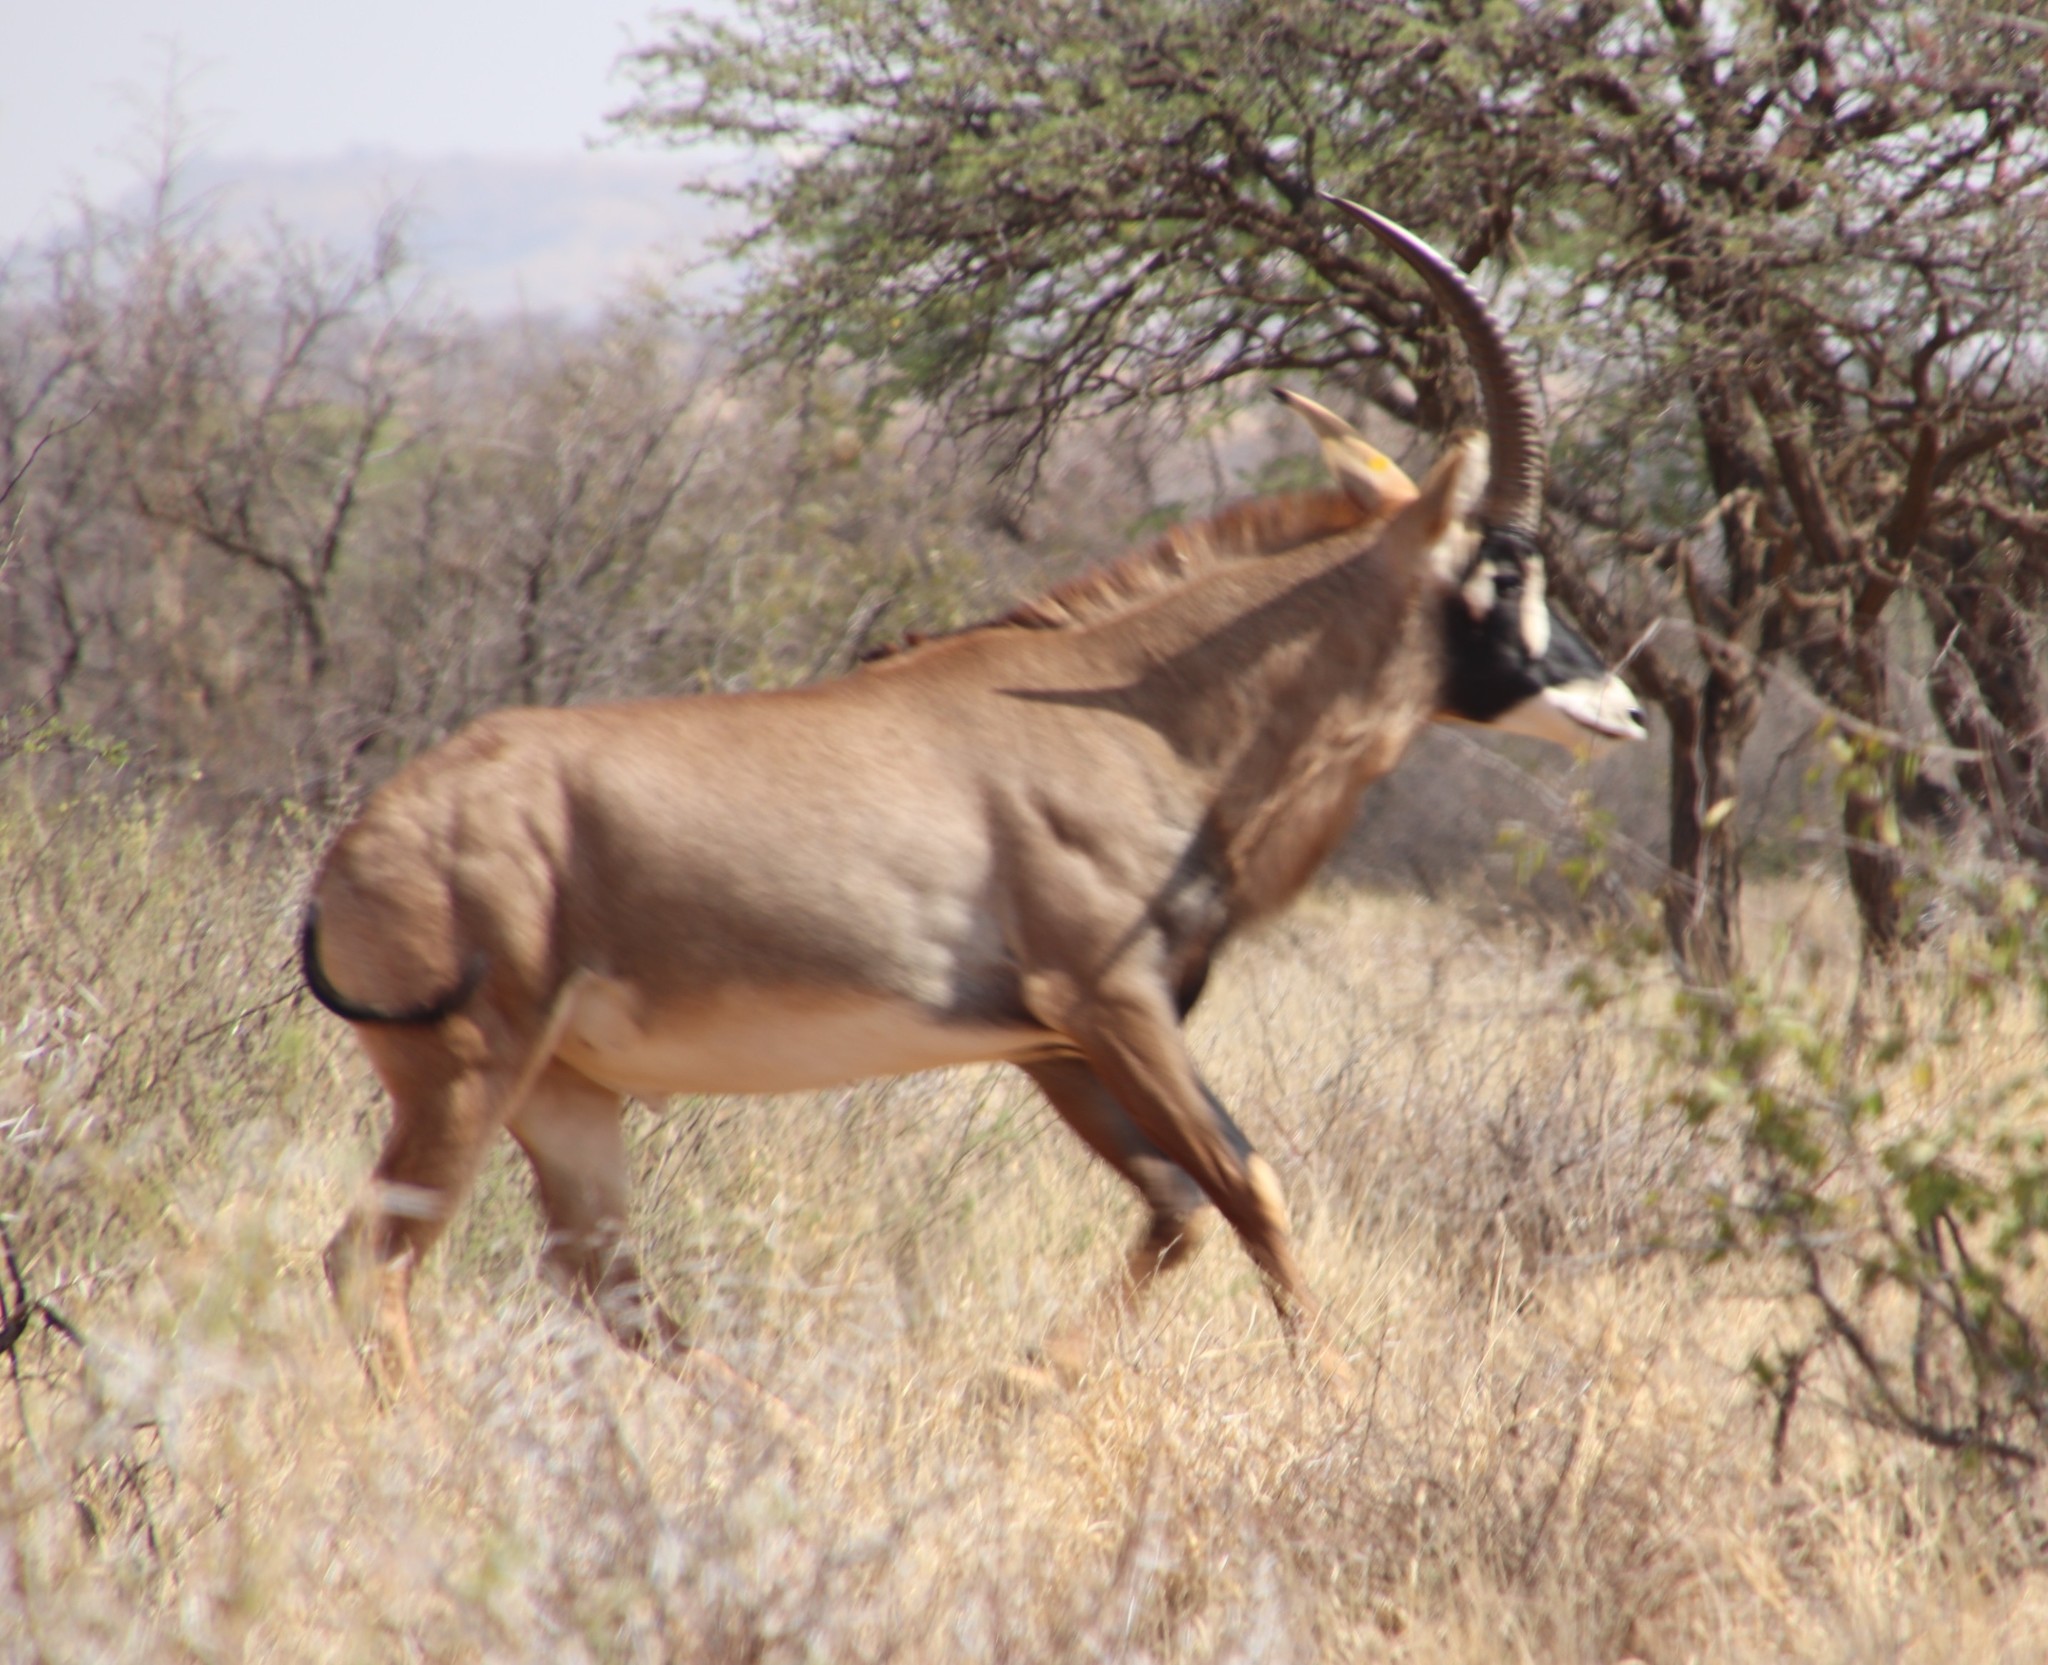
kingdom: Animalia
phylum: Chordata
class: Mammalia
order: Artiodactyla
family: Bovidae
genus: Hippotragus
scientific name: Hippotragus equinus
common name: Roan antelope
